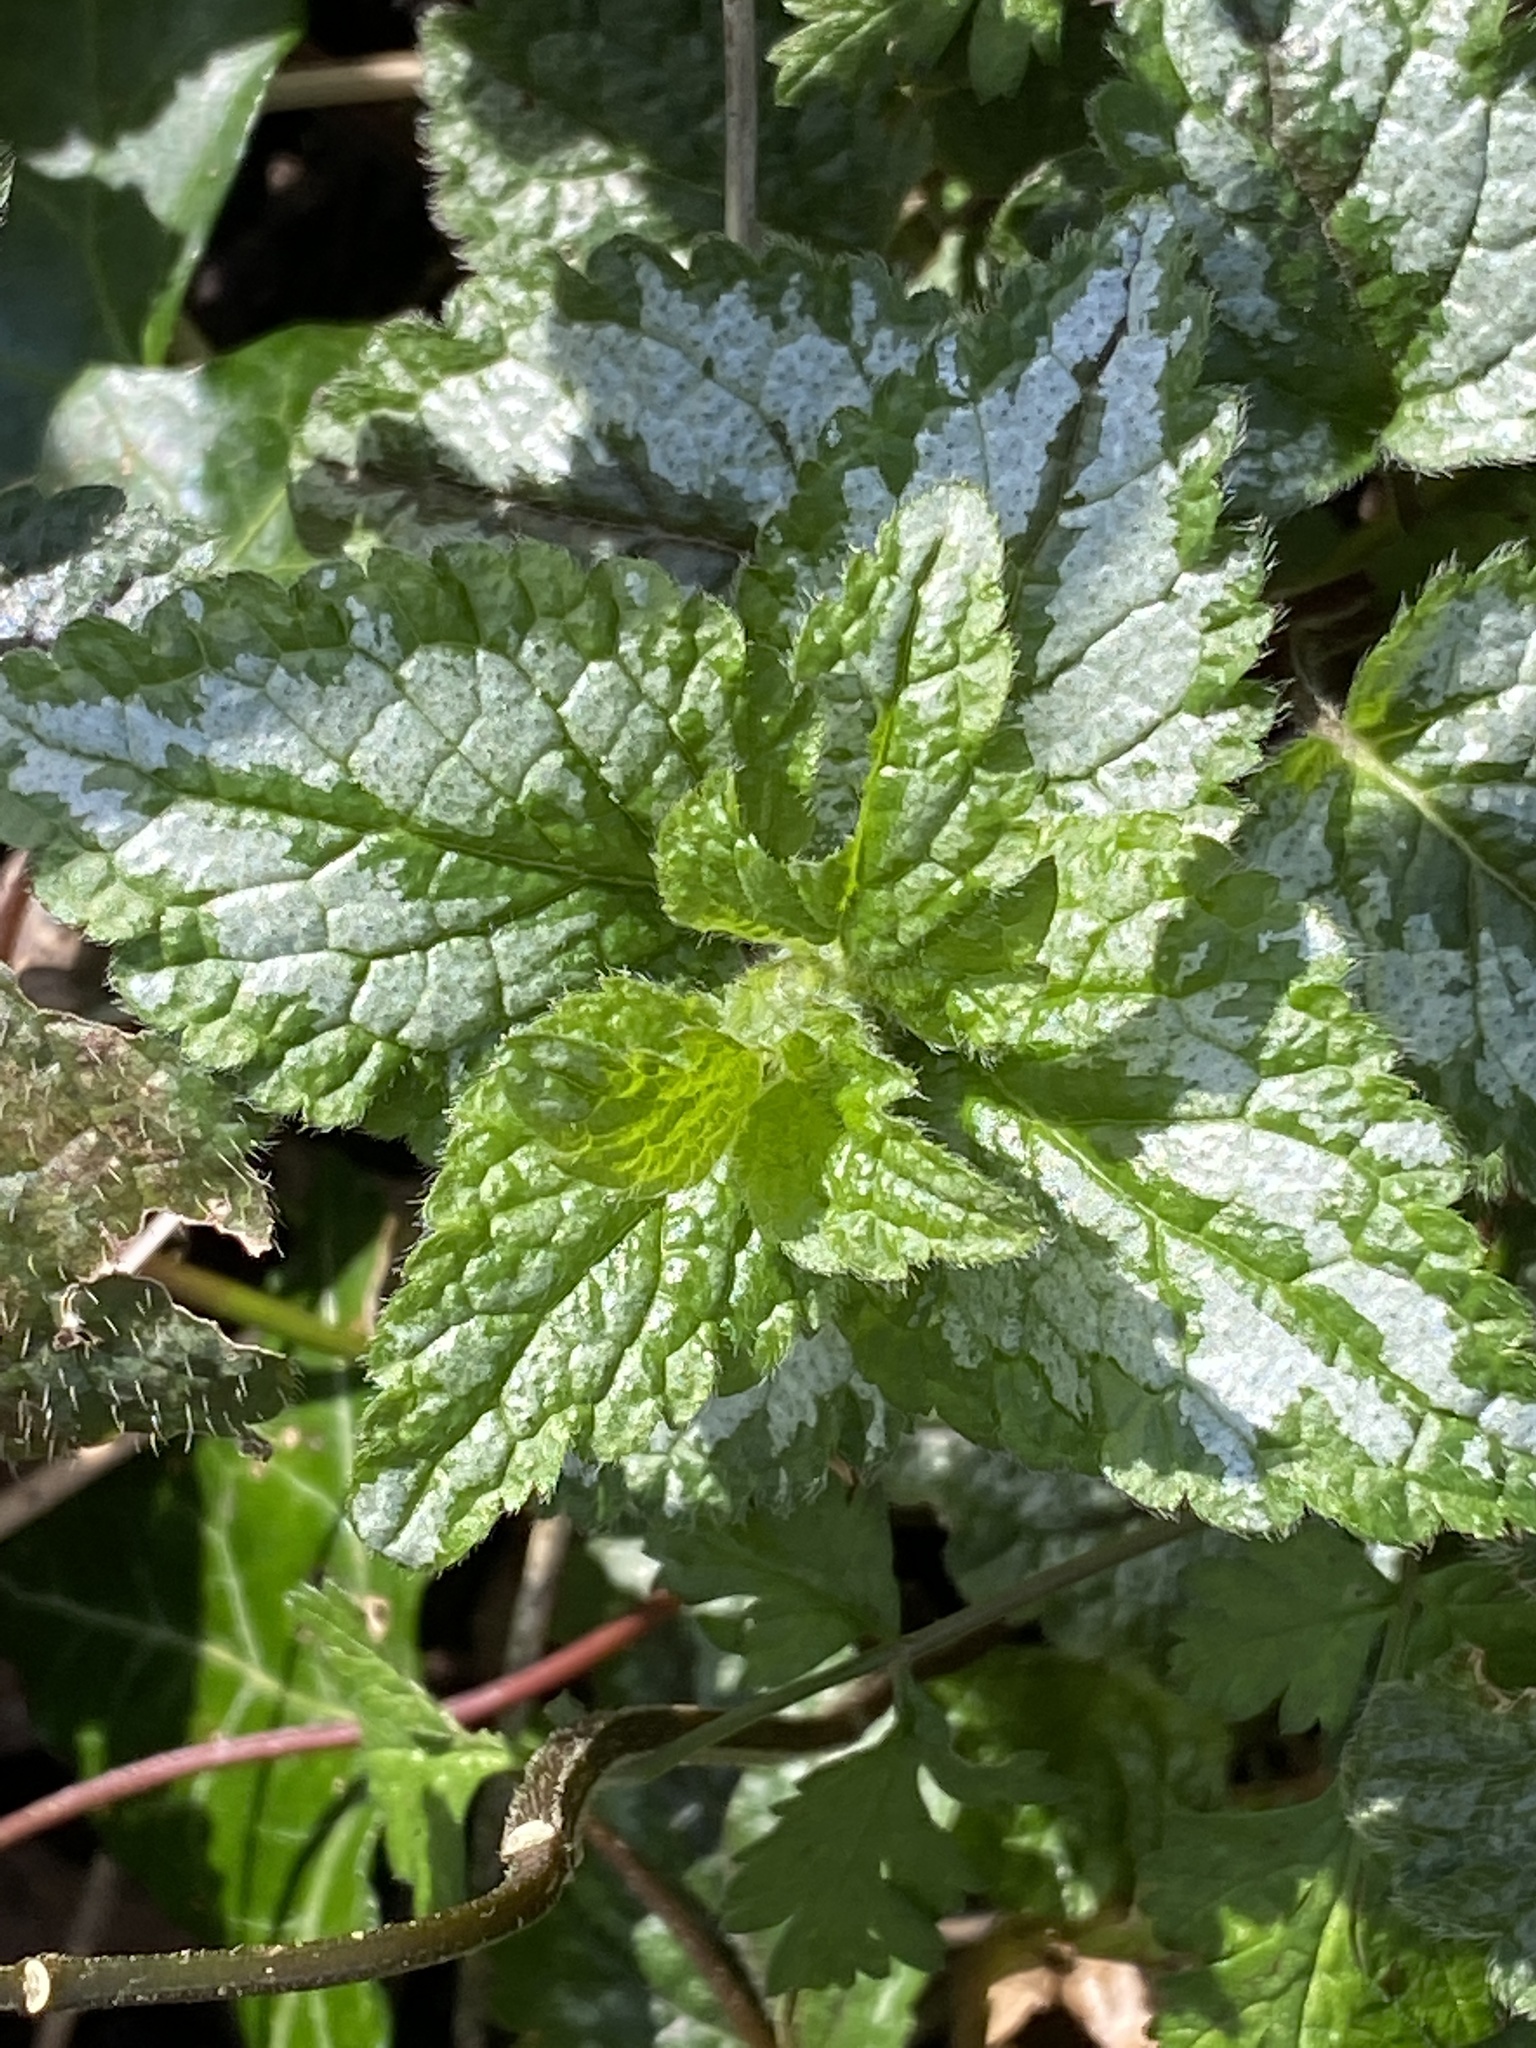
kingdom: Plantae
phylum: Tracheophyta
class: Magnoliopsida
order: Lamiales
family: Lamiaceae
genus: Lamium
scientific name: Lamium galeobdolon
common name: Yellow archangel
